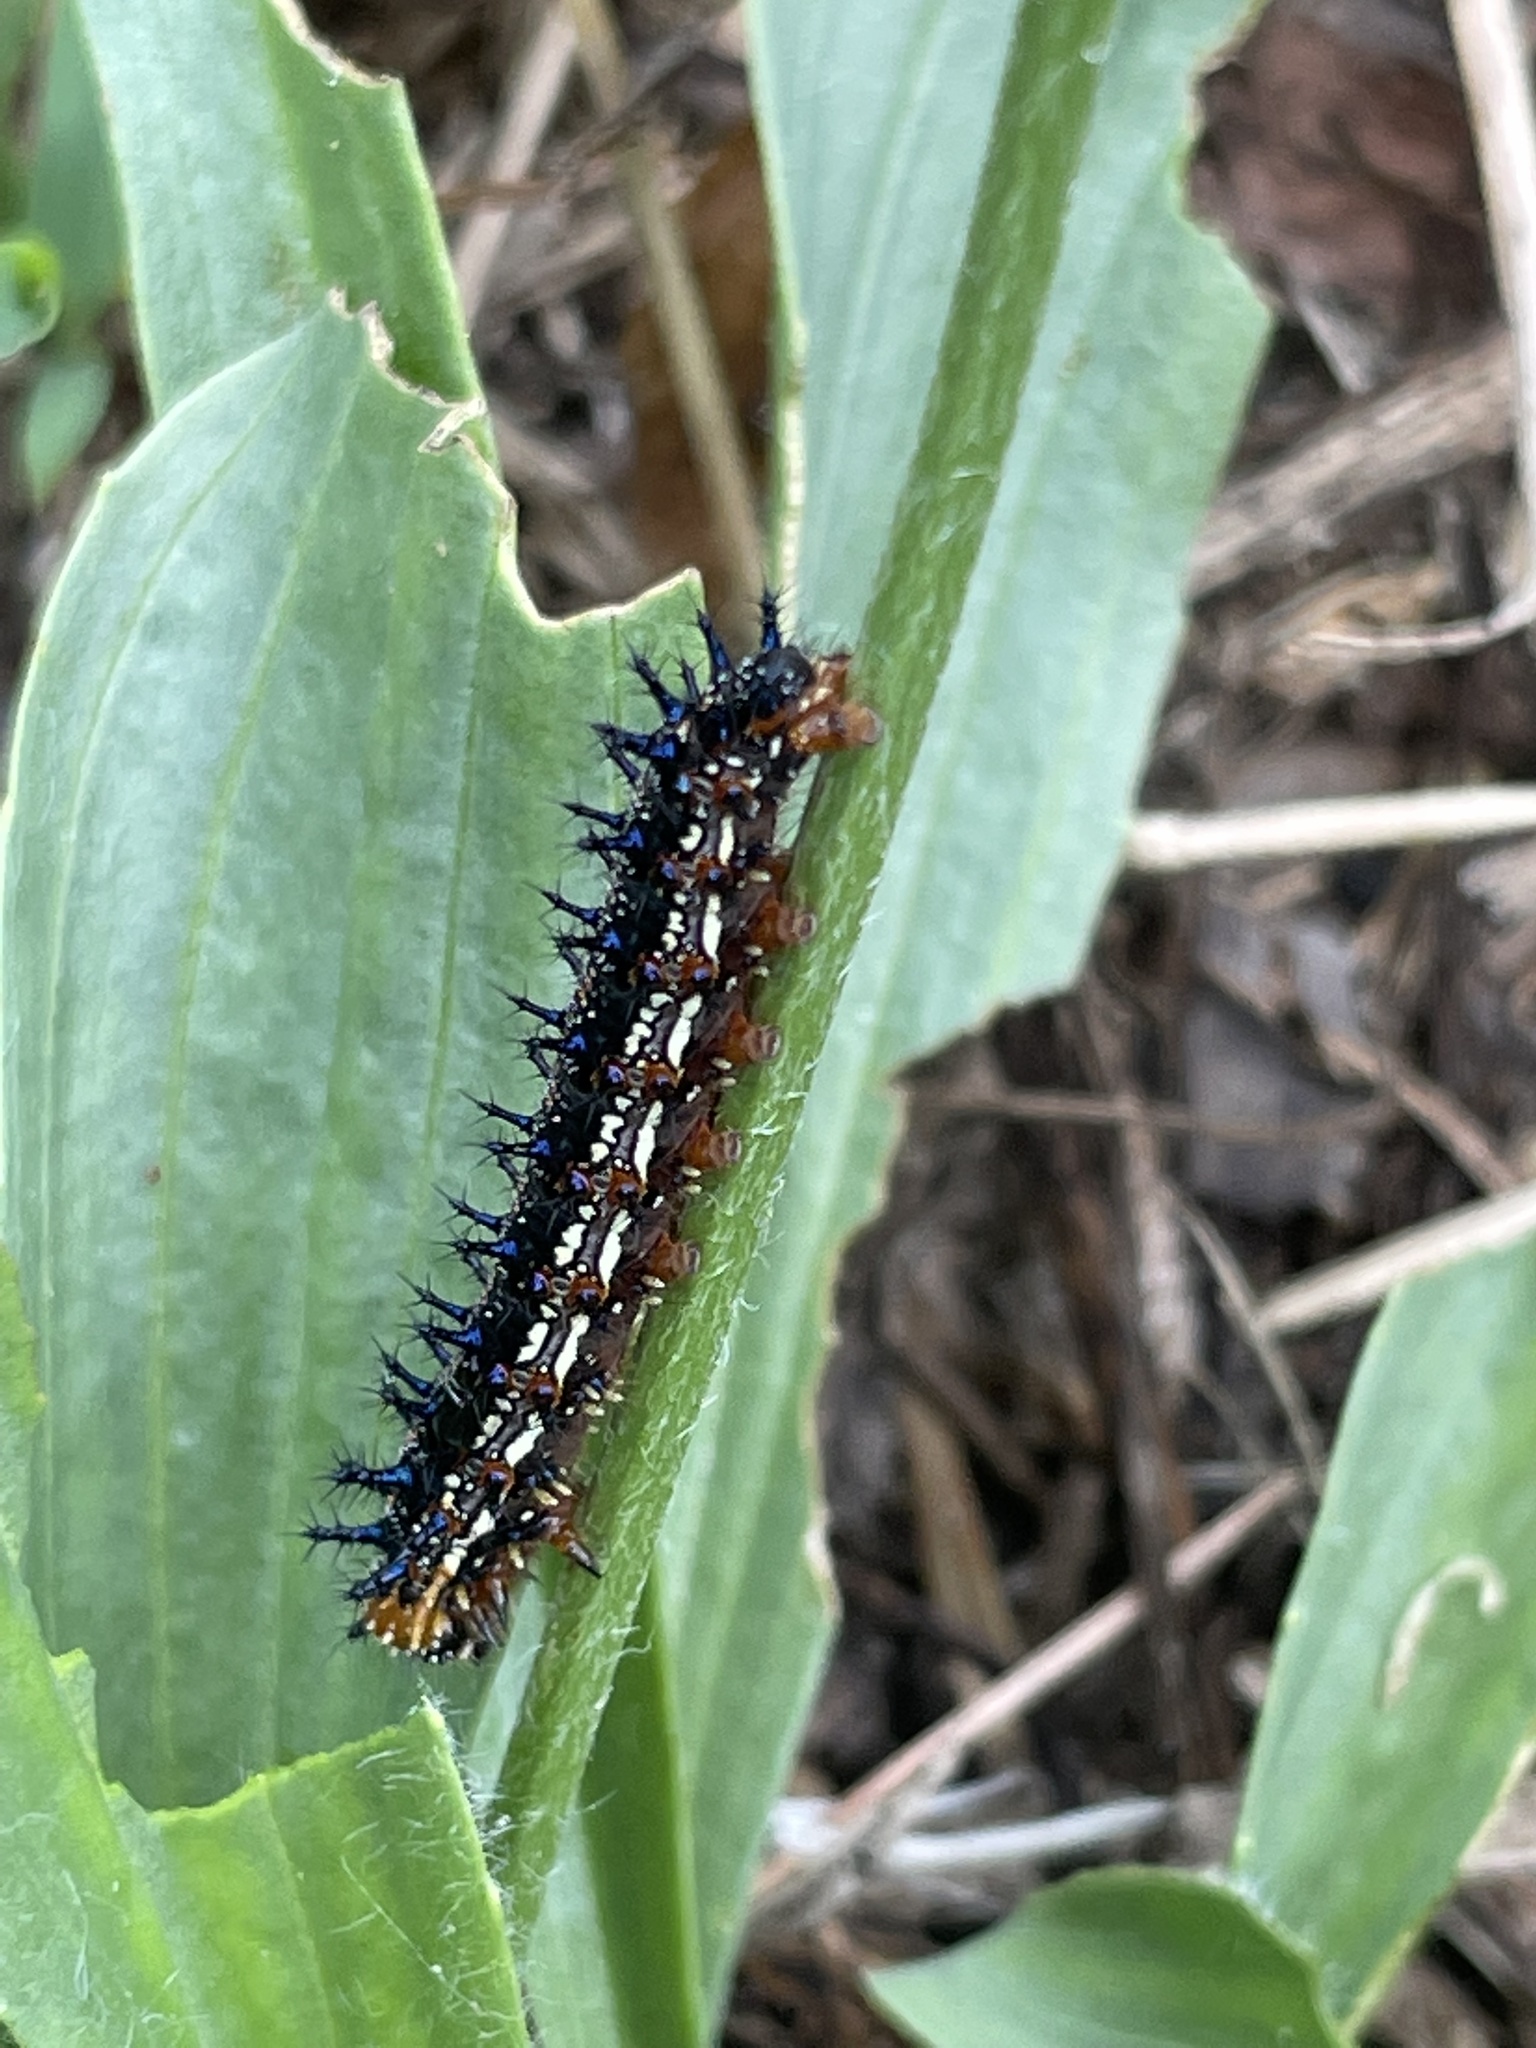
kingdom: Animalia
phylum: Arthropoda
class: Insecta
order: Lepidoptera
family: Nymphalidae
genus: Junonia
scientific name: Junonia coenia
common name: Common buckeye
